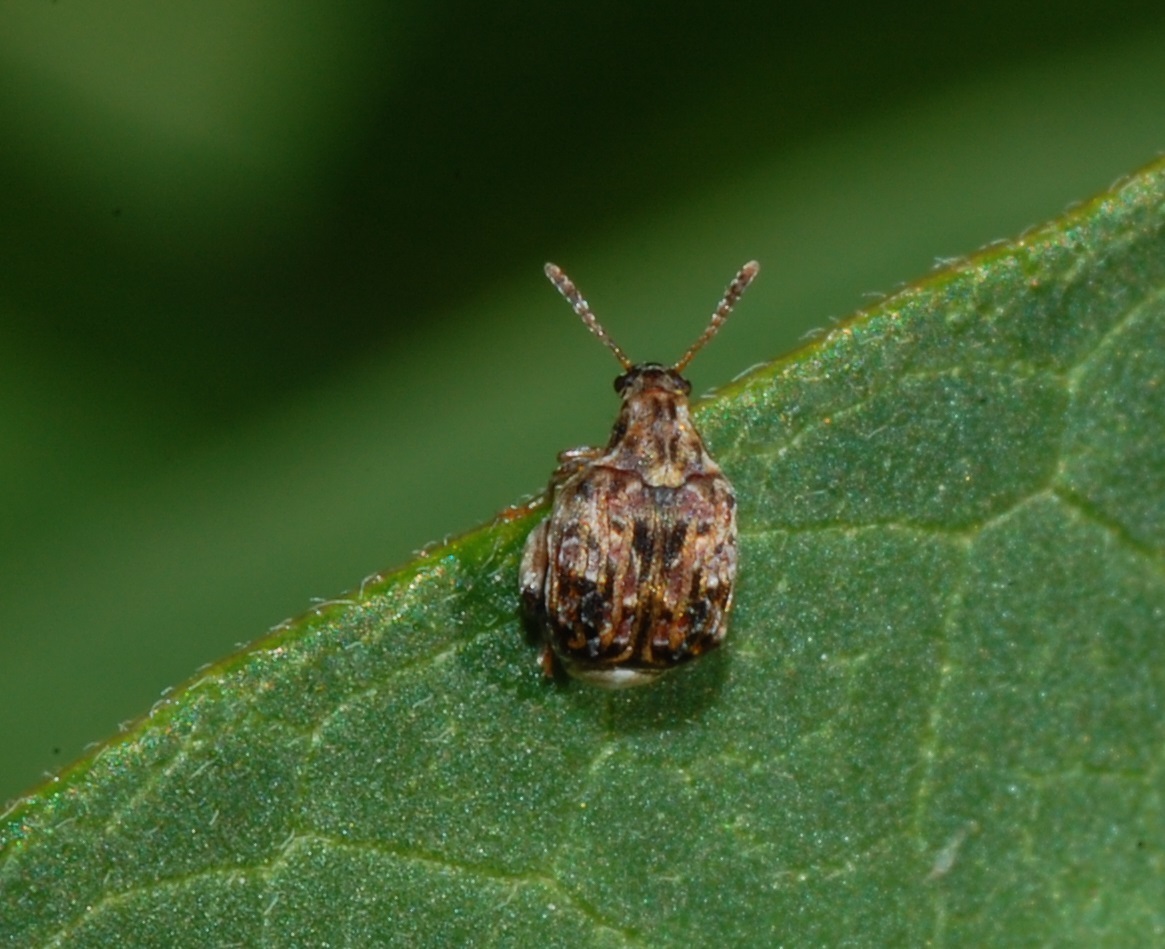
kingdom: Animalia
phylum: Arthropoda
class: Insecta
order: Coleoptera
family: Chrysomelidae
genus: Gibbobruchus
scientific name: Gibbobruchus mimus
